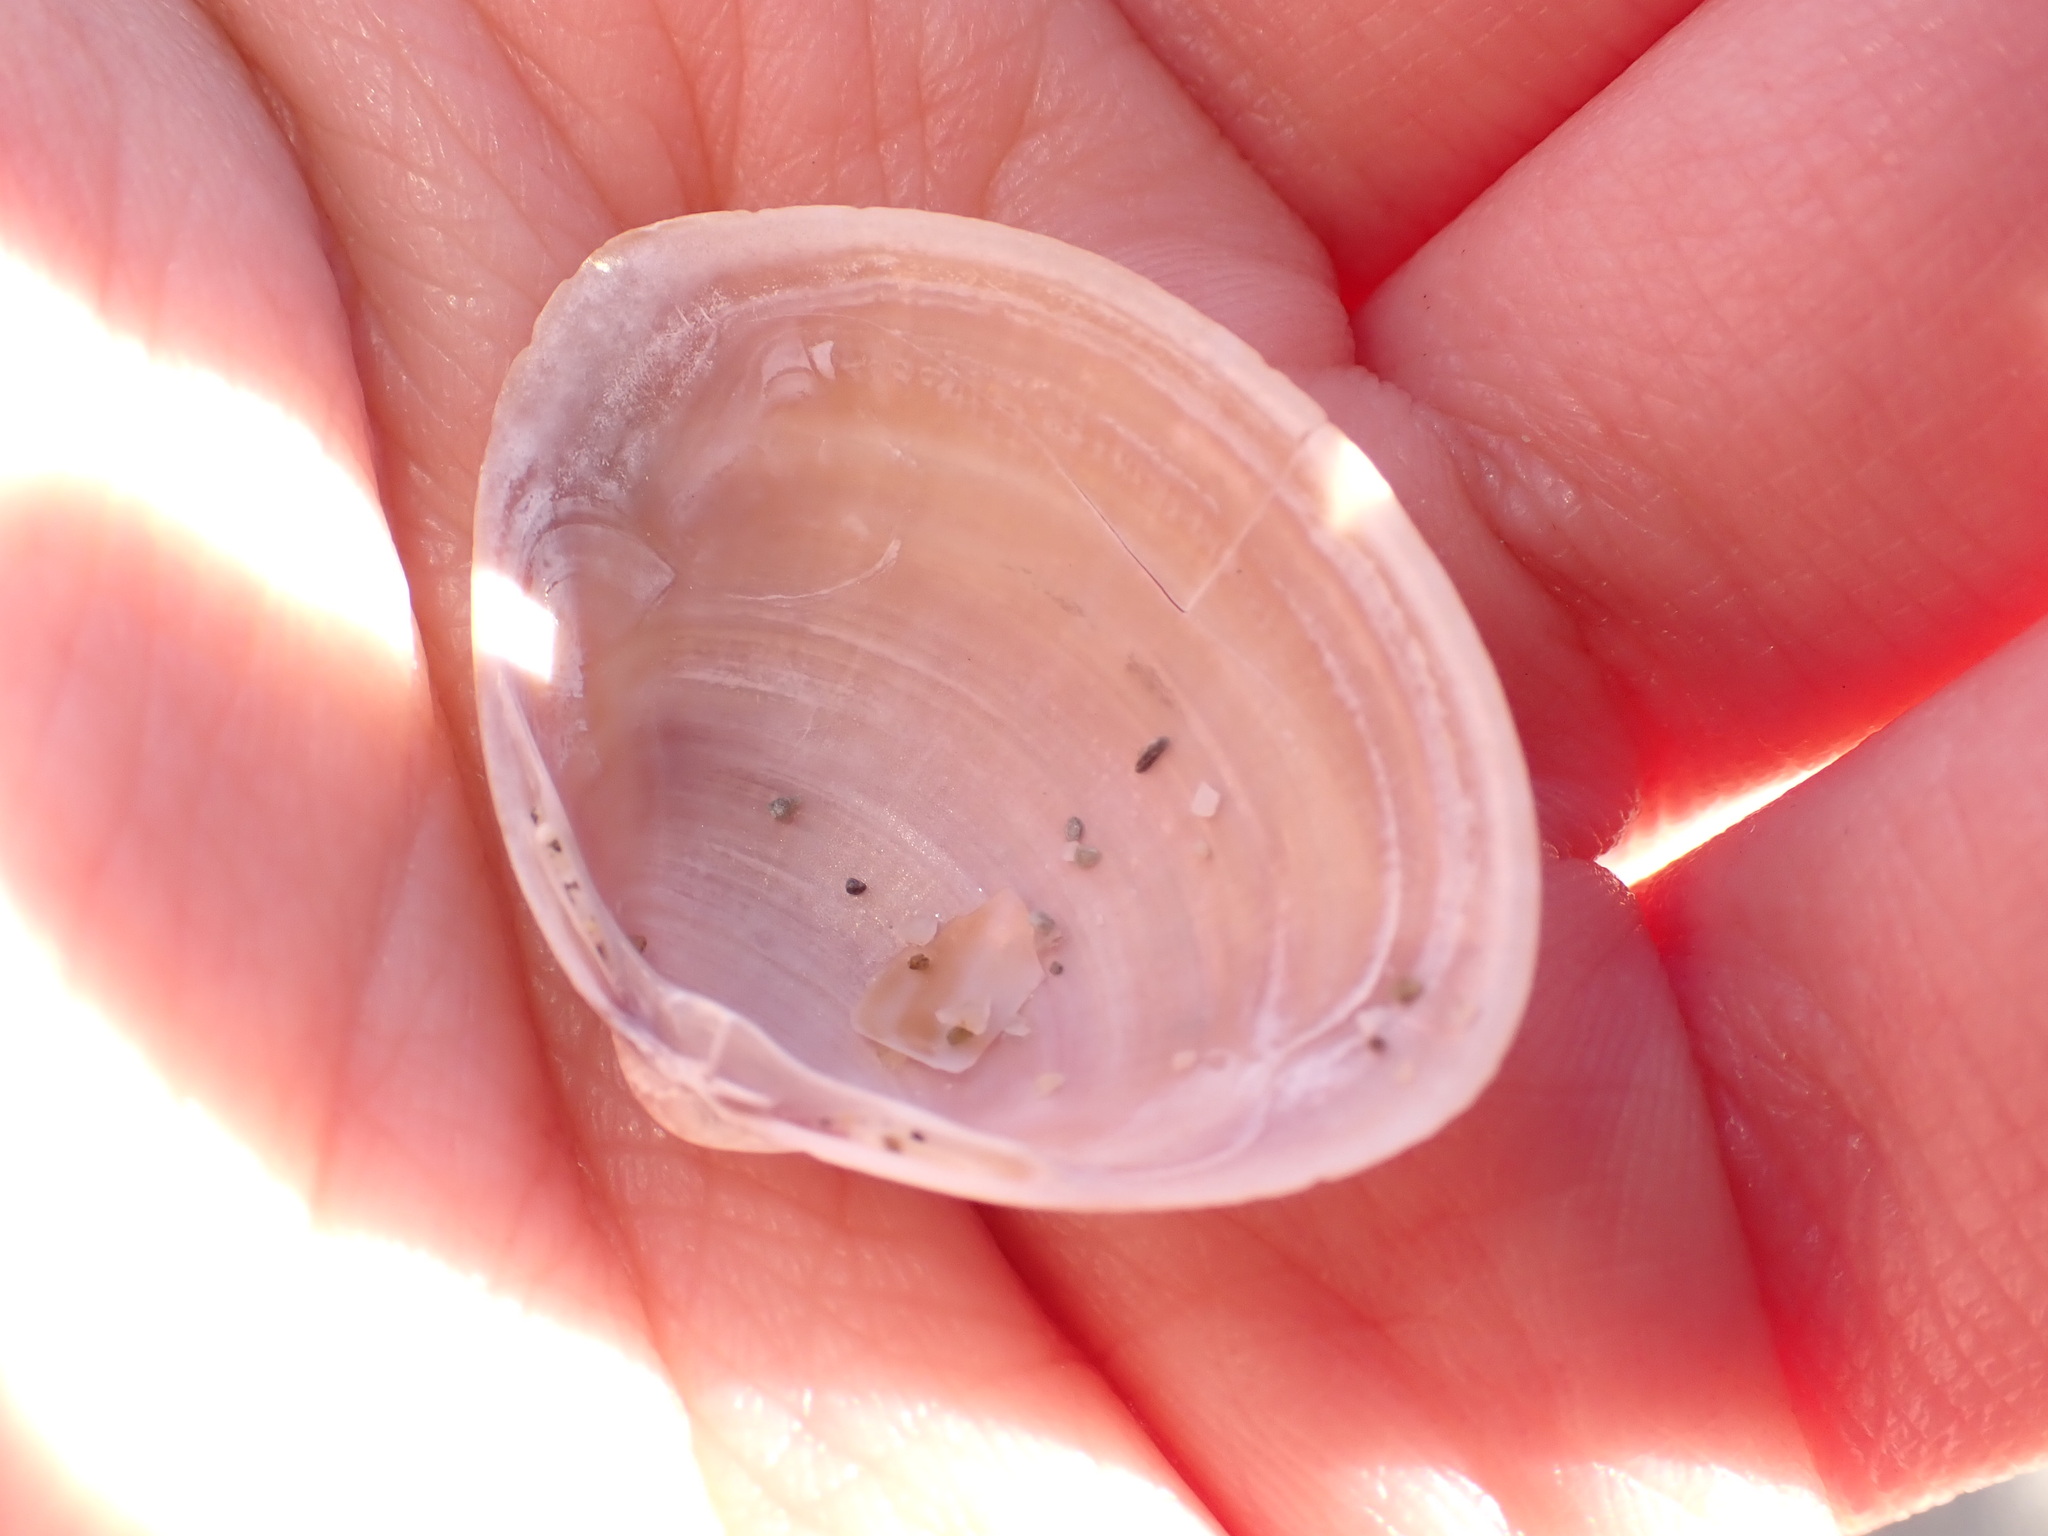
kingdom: Animalia
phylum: Mollusca
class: Bivalvia
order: Venerida
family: Mactridae
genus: Mactra
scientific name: Mactra stultorum
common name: Rayed trough shell
